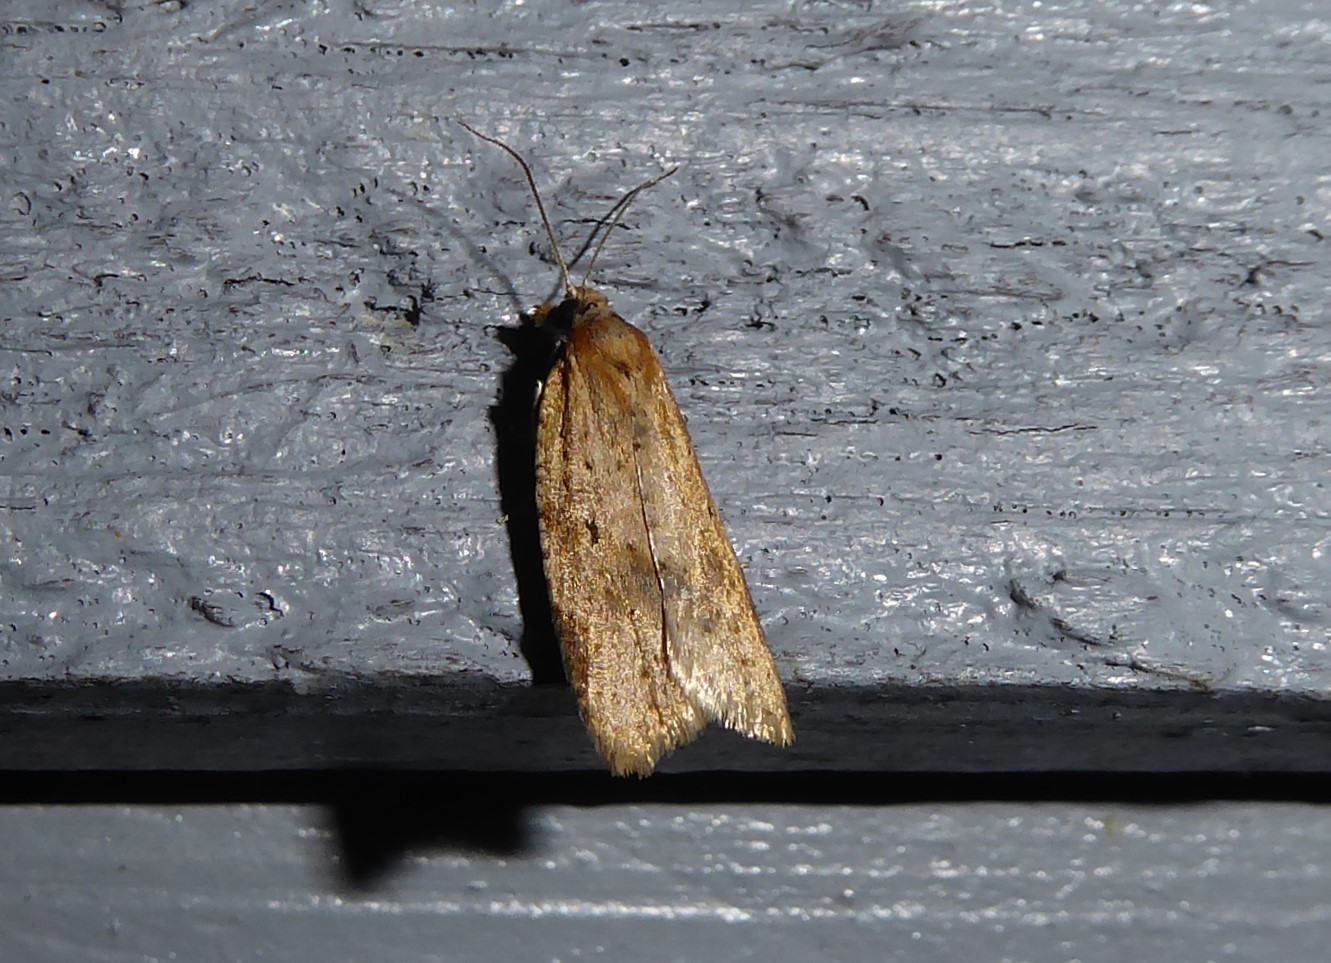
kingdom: Animalia
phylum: Arthropoda
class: Insecta
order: Lepidoptera
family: Tortricidae
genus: Clepsis
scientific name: Clepsis
